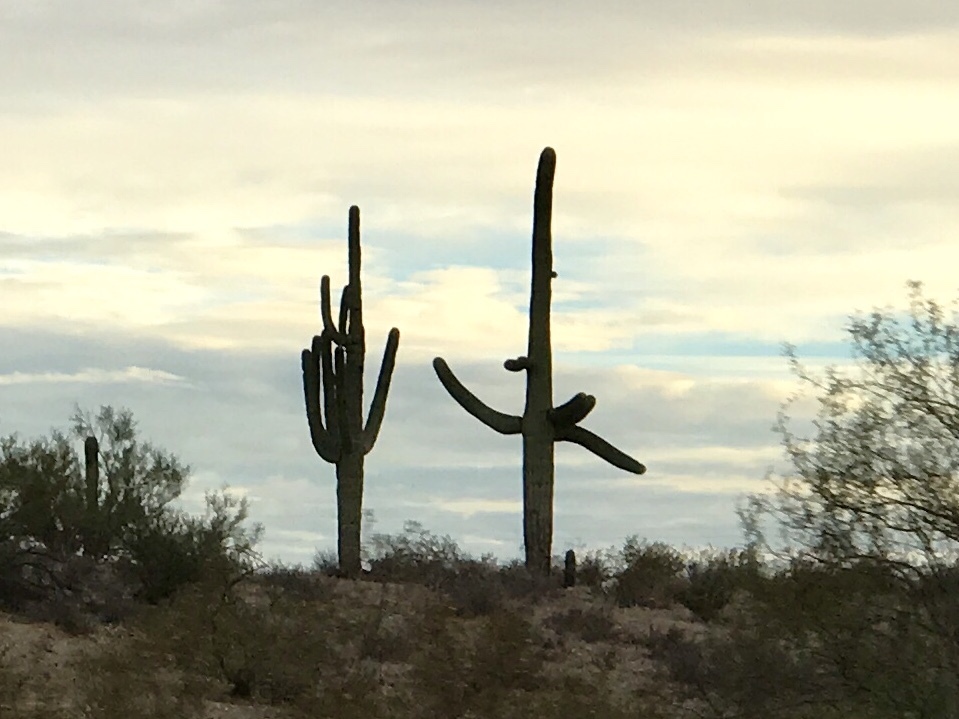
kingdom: Plantae
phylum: Tracheophyta
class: Magnoliopsida
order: Caryophyllales
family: Cactaceae
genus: Carnegiea
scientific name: Carnegiea gigantea
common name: Saguaro
